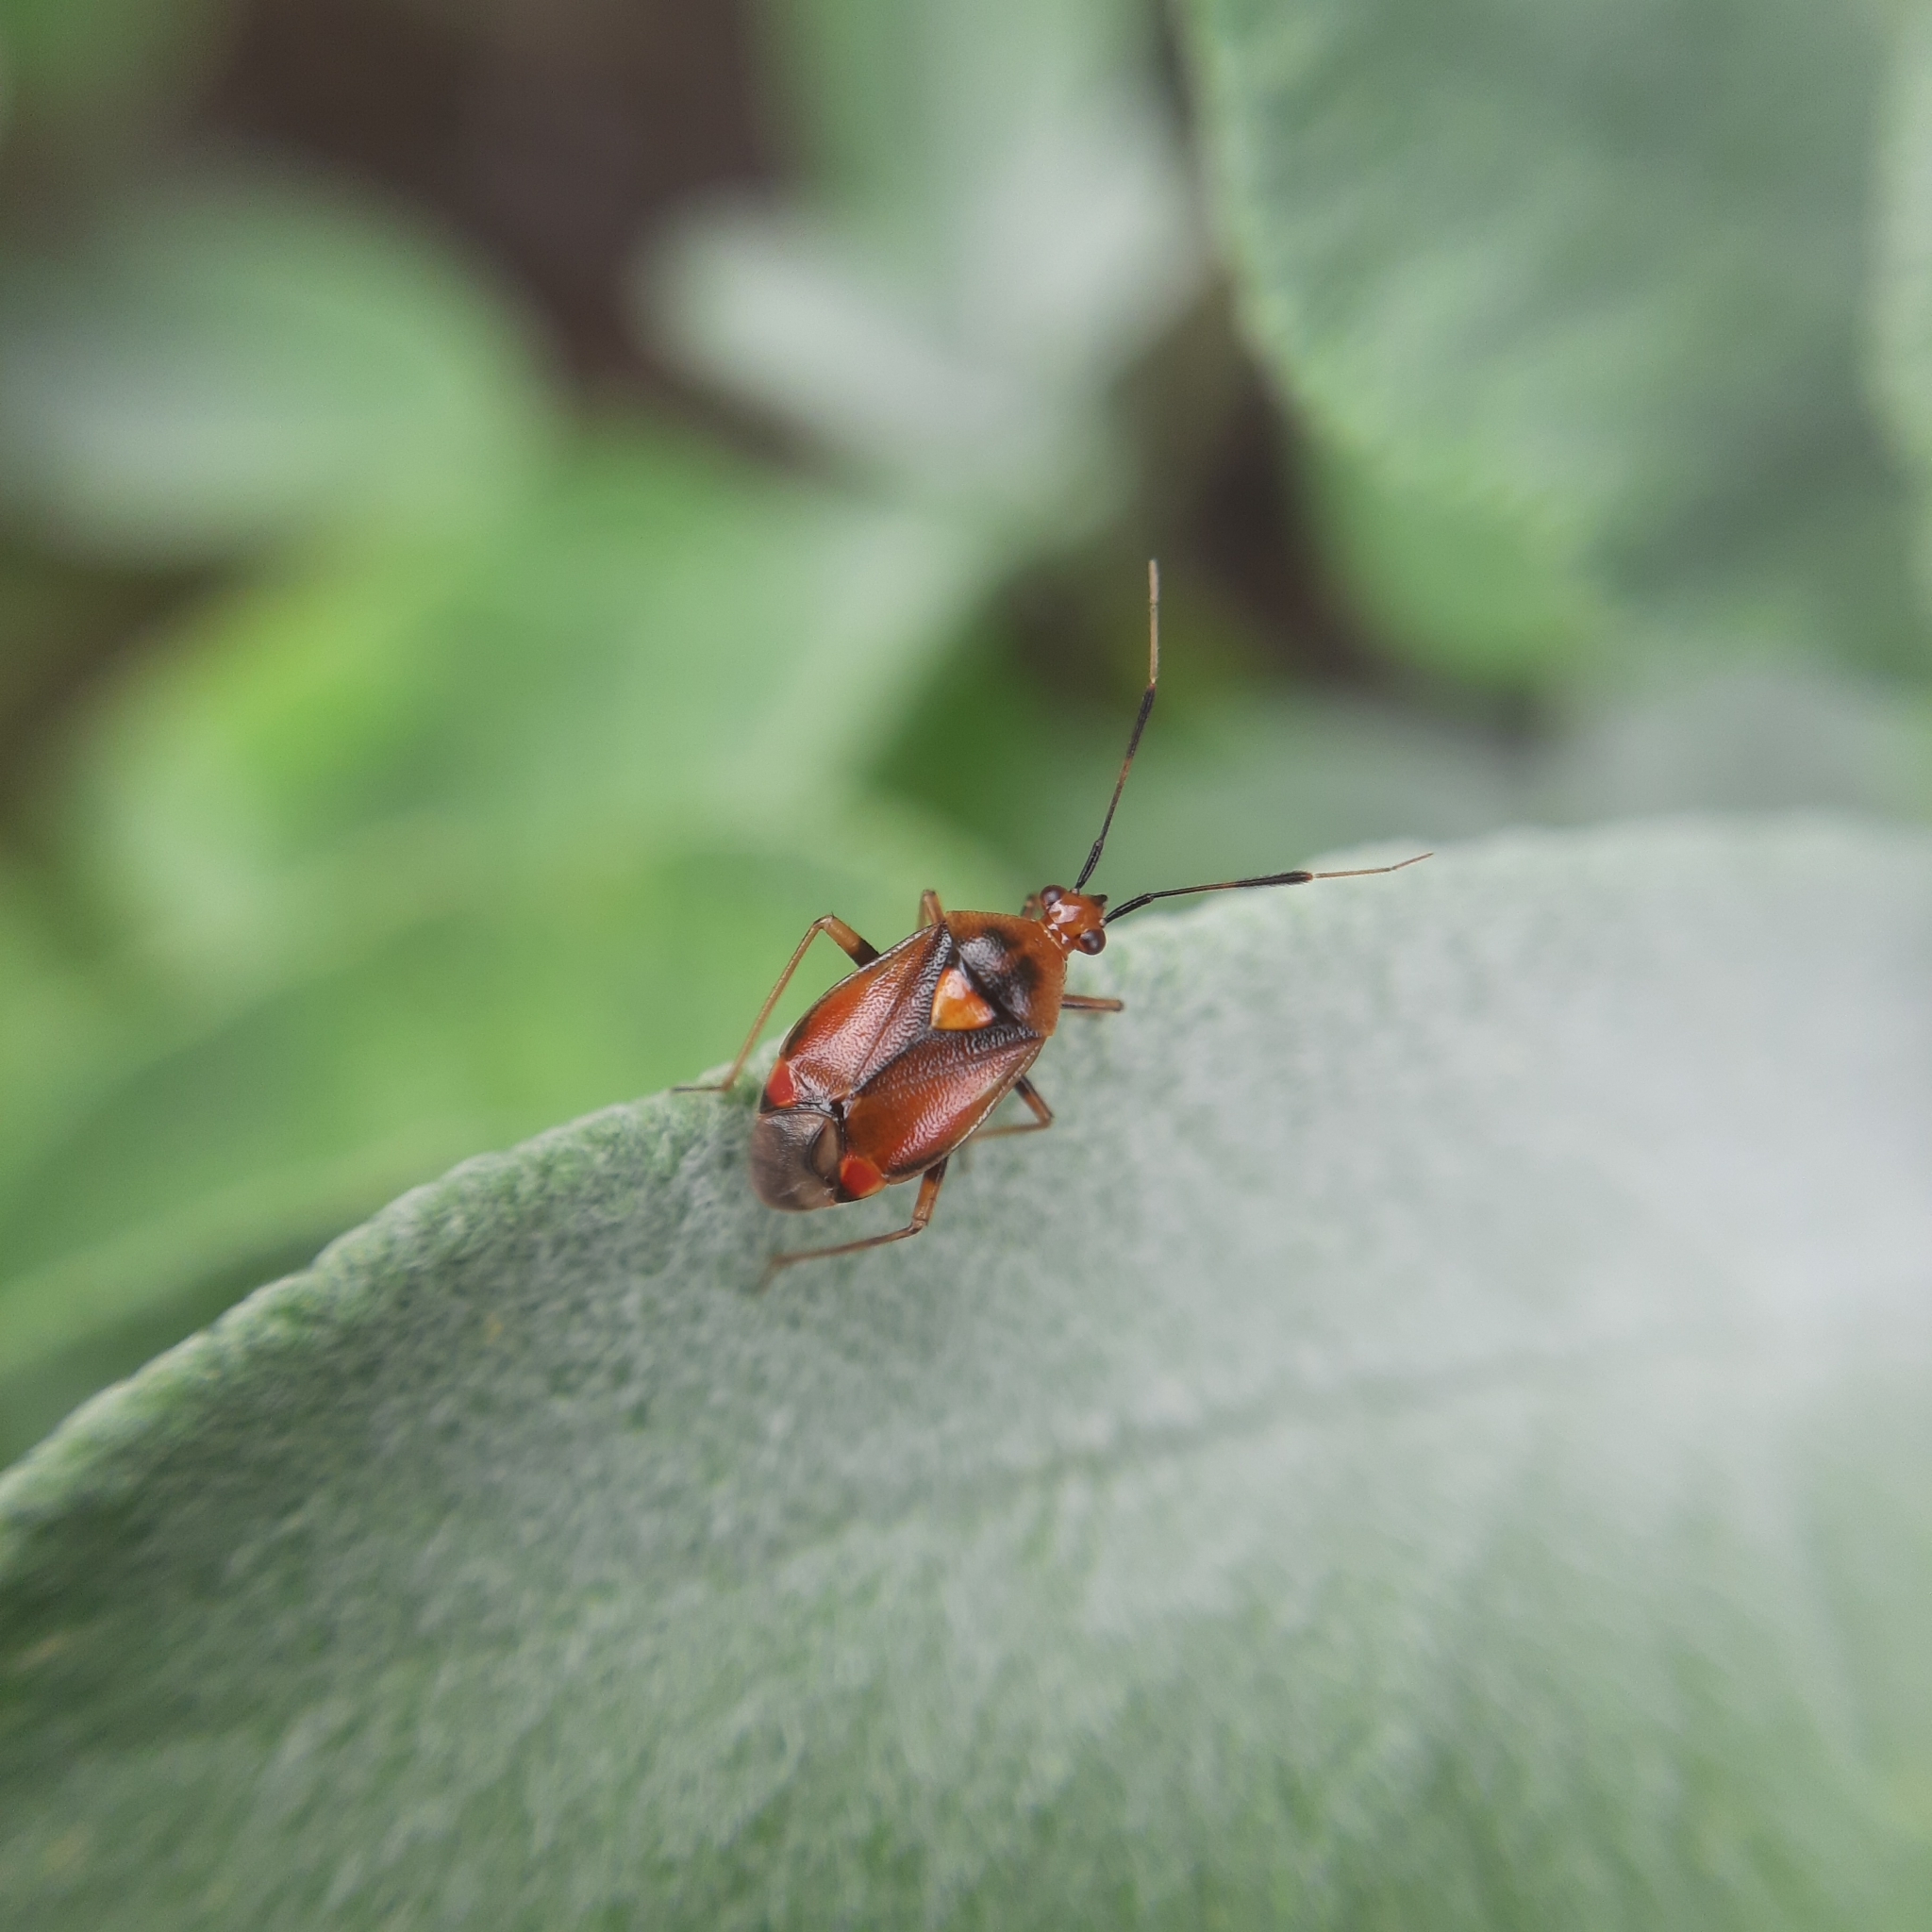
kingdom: Animalia
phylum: Arthropoda
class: Insecta
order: Hemiptera
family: Miridae
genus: Deraeocoris
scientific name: Deraeocoris ruber
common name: Plant bug
